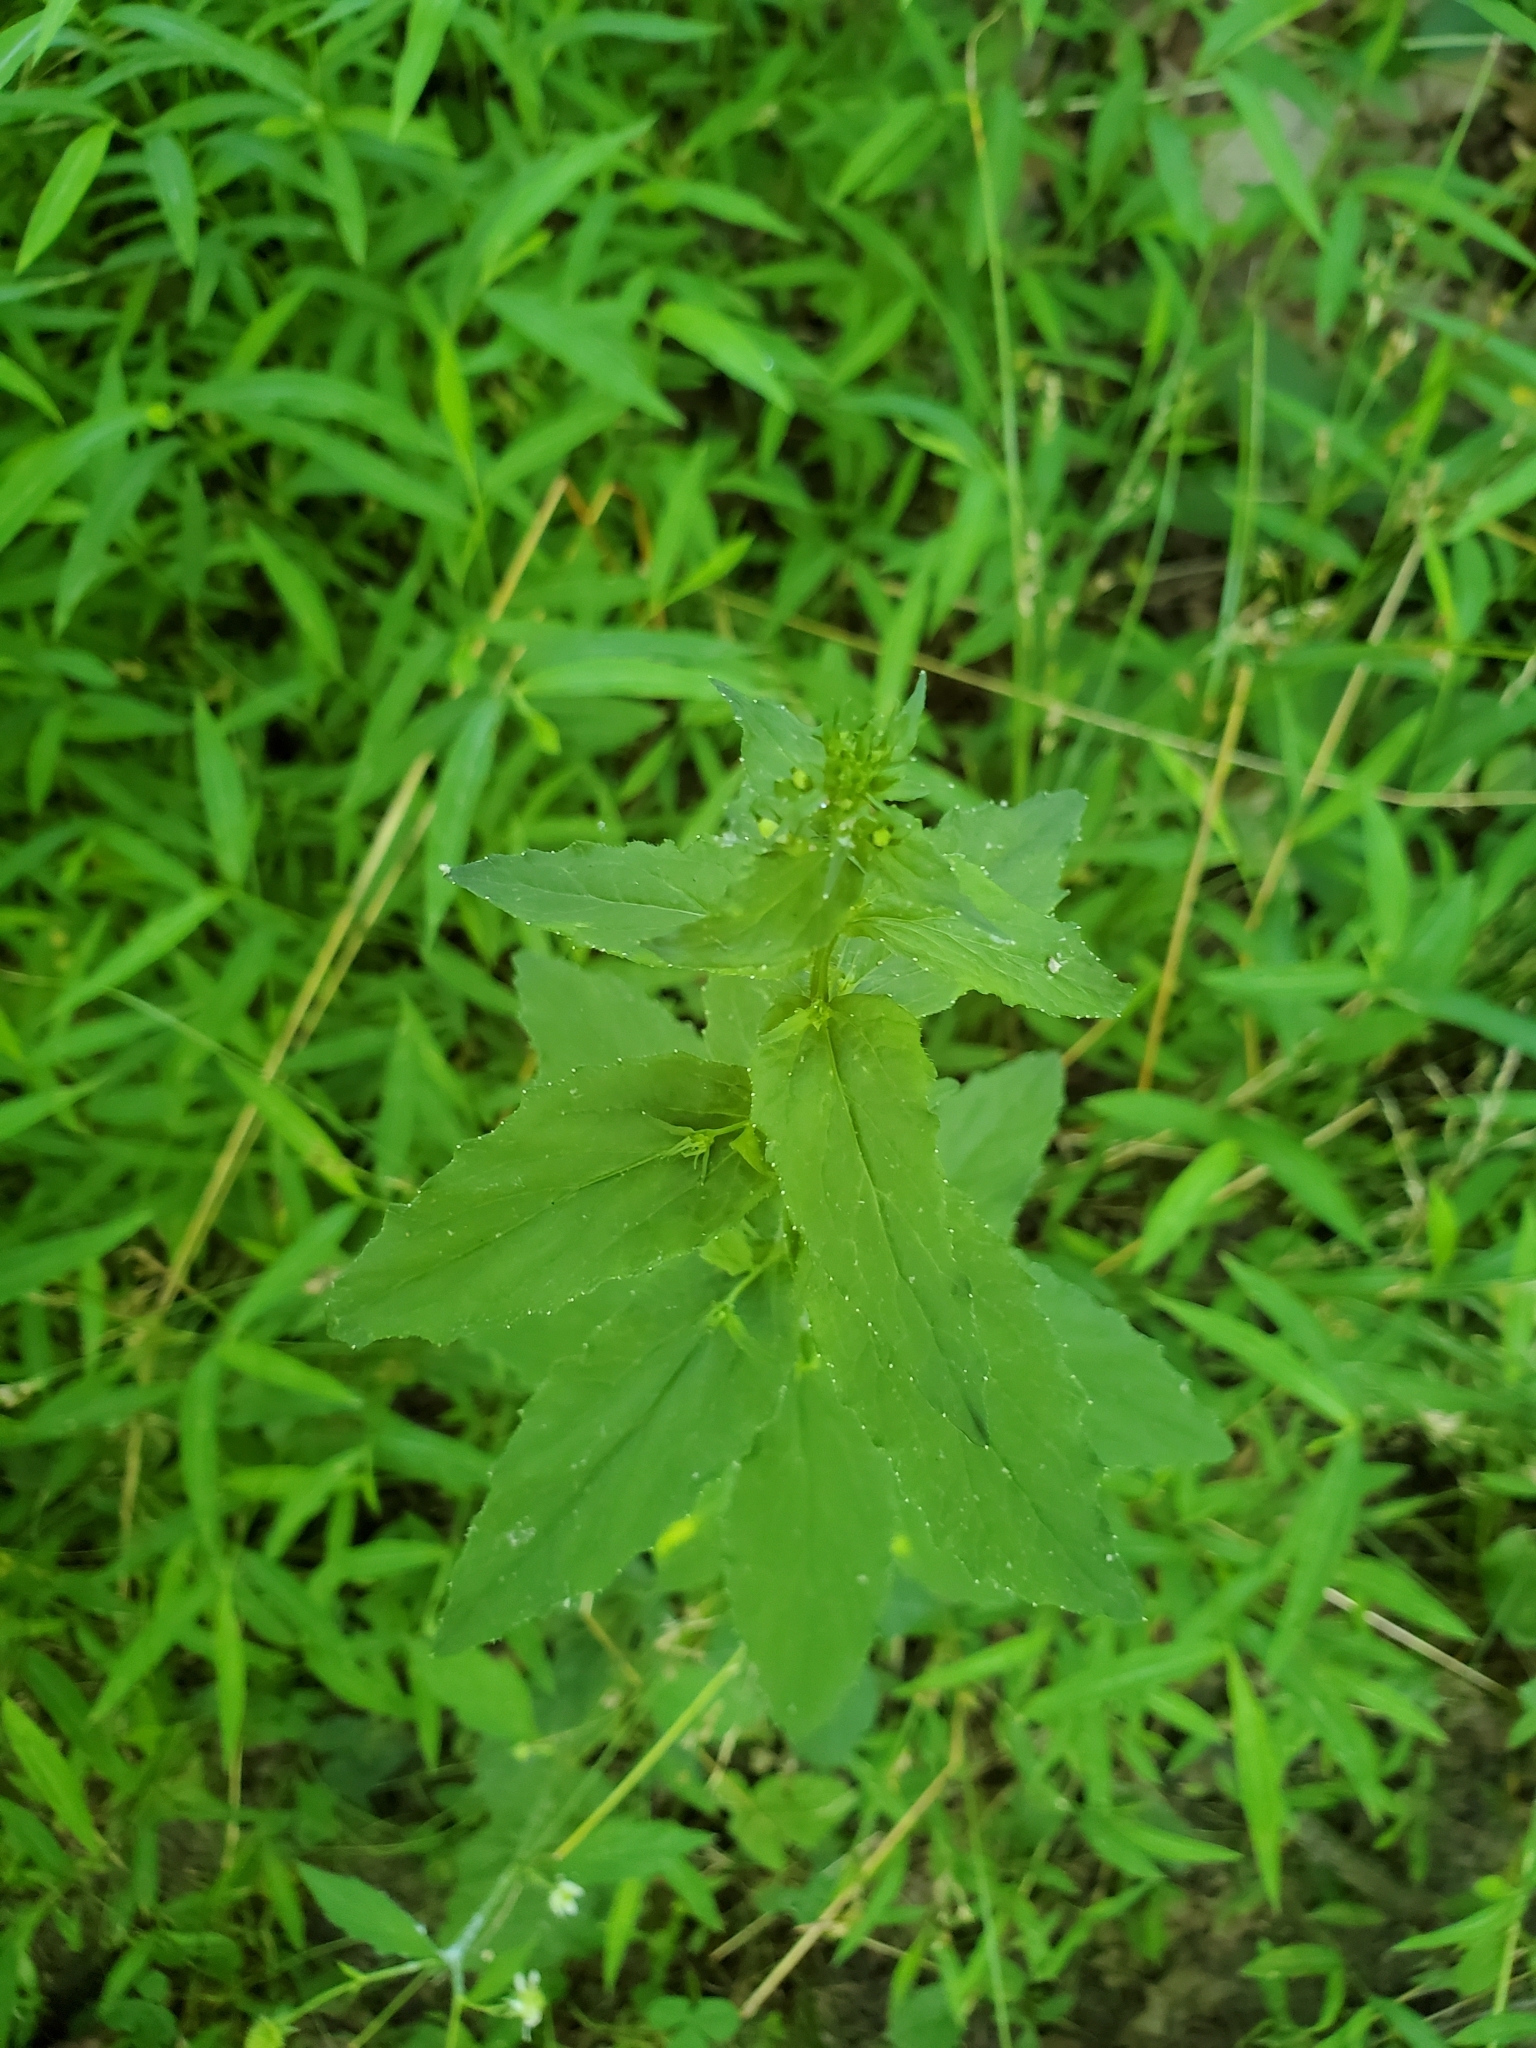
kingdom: Plantae
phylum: Tracheophyta
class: Magnoliopsida
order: Asterales
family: Campanulaceae
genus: Lobelia
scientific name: Lobelia inflata
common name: Indian tobacco
